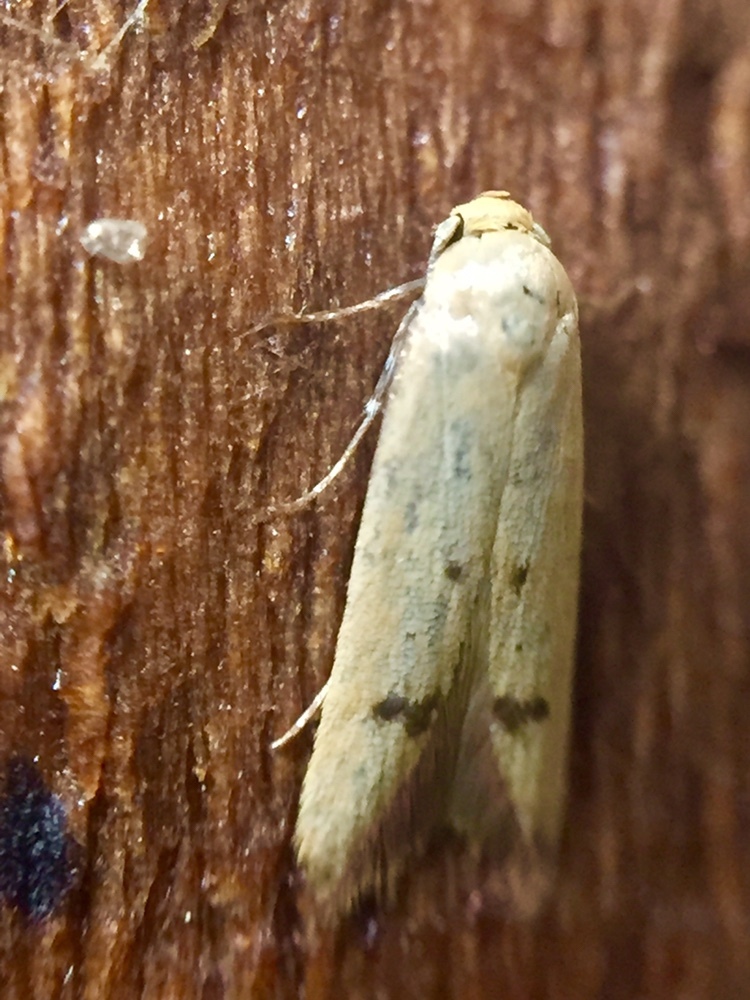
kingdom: Animalia
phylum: Arthropoda
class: Insecta
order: Lepidoptera
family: Oecophoridae
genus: Tachystola
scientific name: Tachystola hemisema
